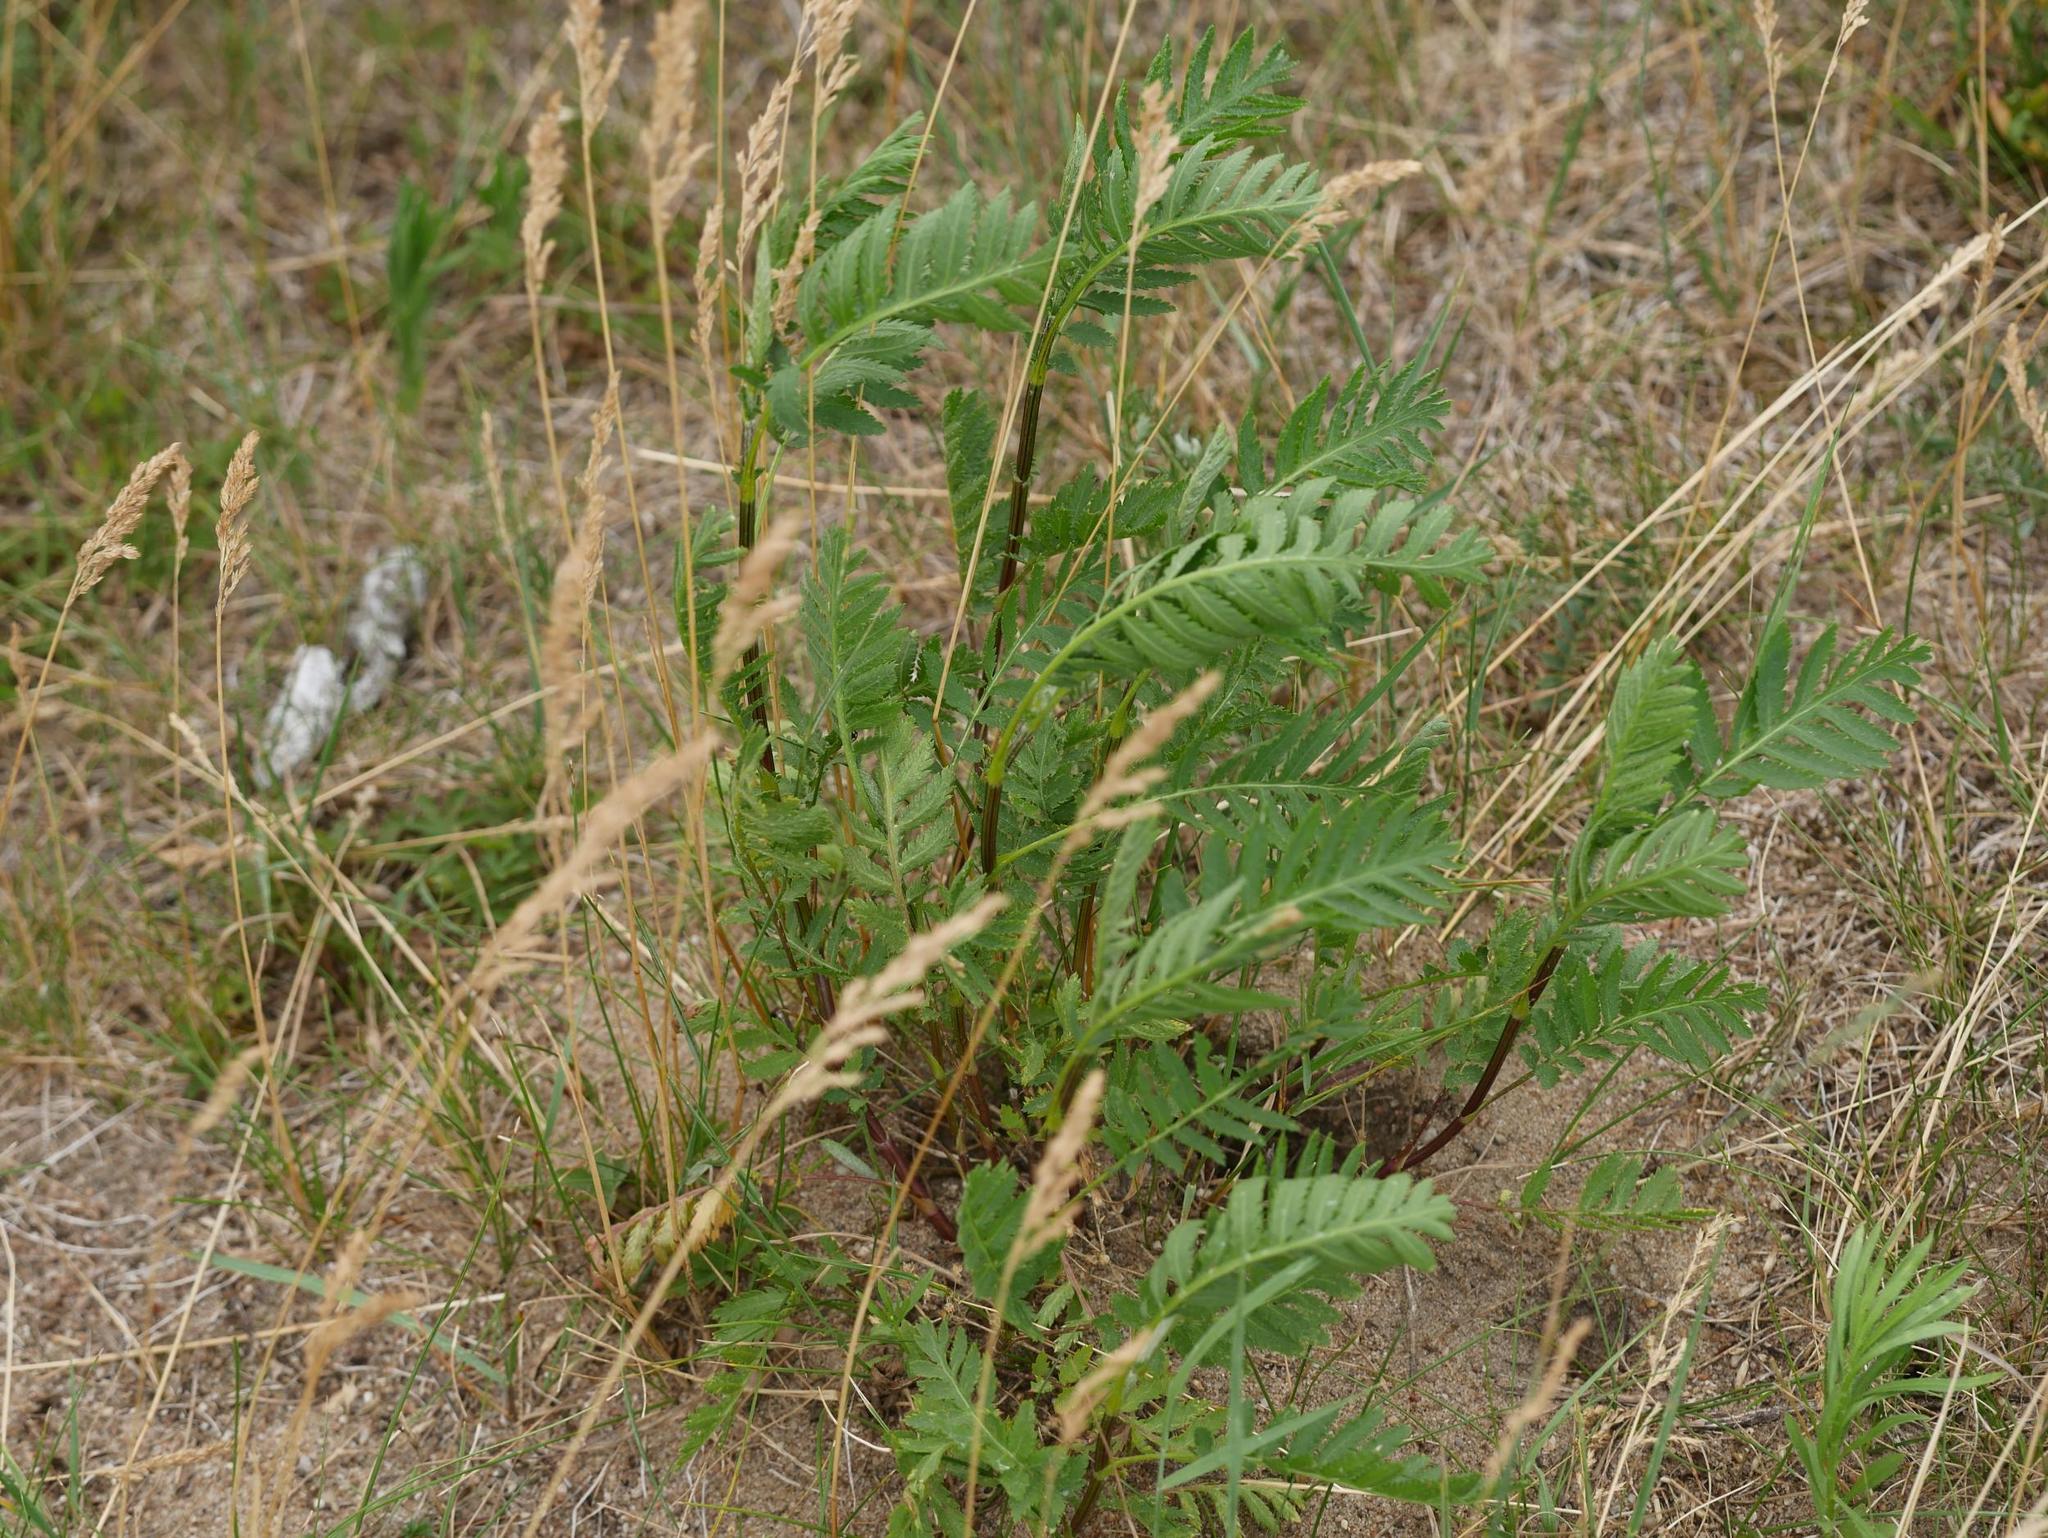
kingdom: Plantae
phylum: Tracheophyta
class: Magnoliopsida
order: Asterales
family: Asteraceae
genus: Tanacetum
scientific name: Tanacetum vulgare
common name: Common tansy
